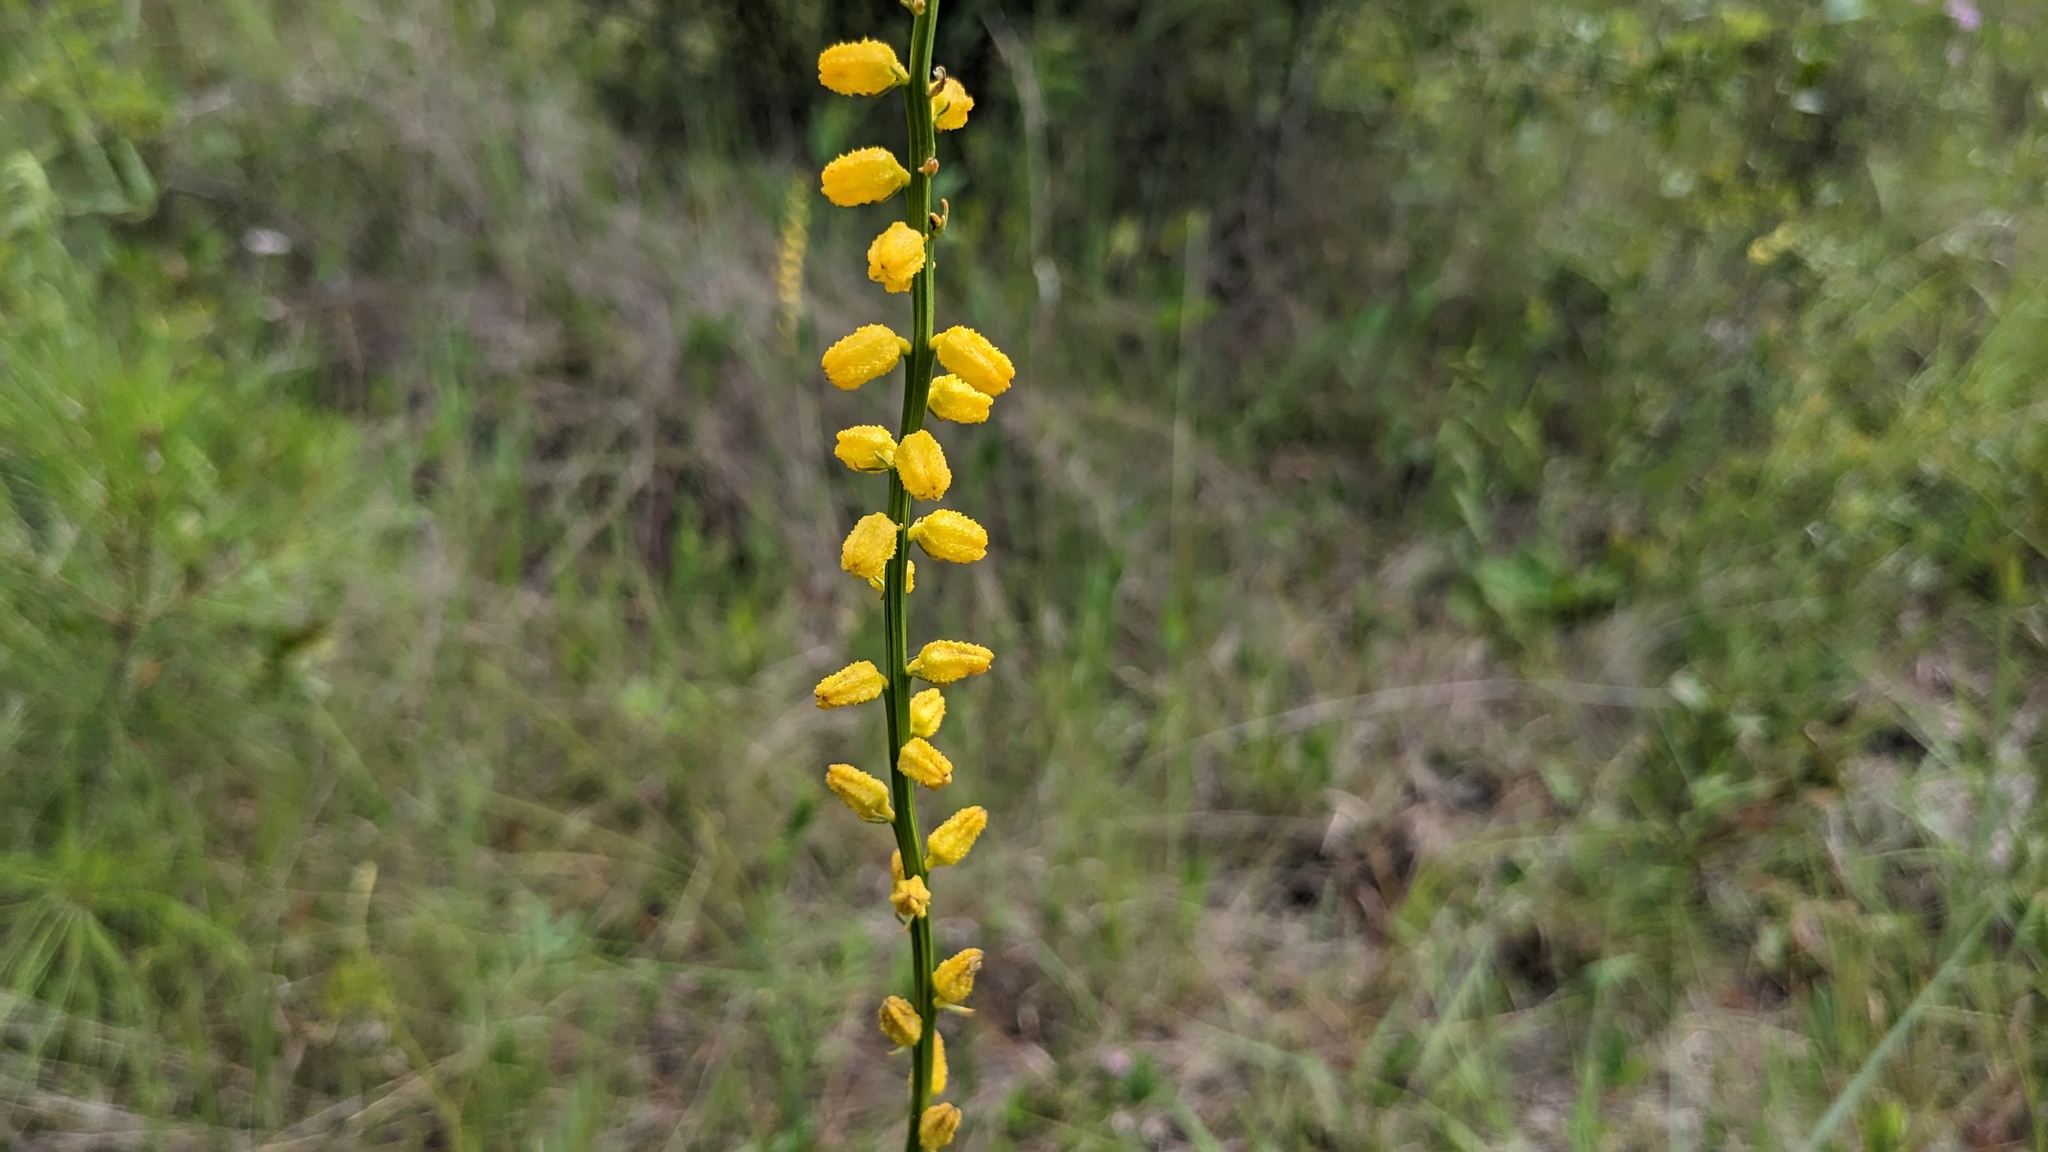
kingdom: Plantae
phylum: Tracheophyta
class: Liliopsida
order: Dioscoreales
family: Nartheciaceae
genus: Aletris
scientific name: Aletris aurea
